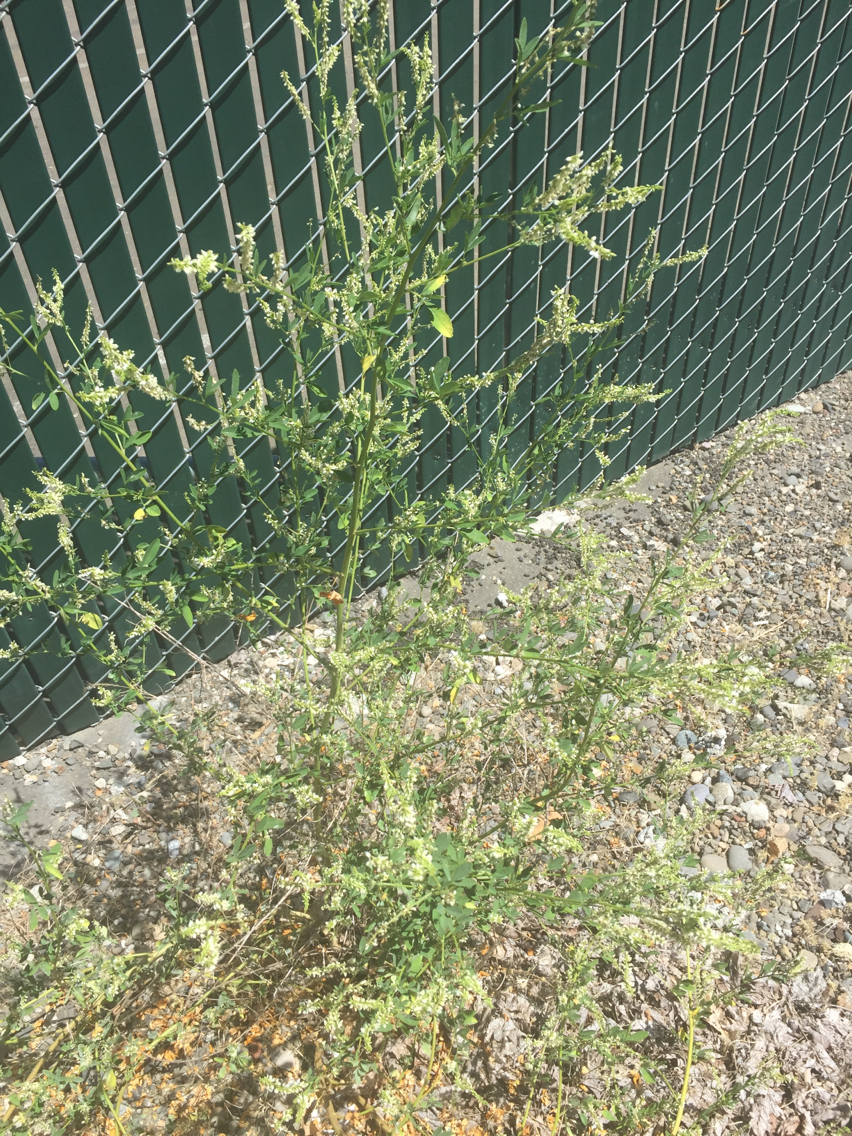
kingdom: Plantae
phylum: Tracheophyta
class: Magnoliopsida
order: Fabales
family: Fabaceae
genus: Melilotus
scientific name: Melilotus albus
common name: White melilot
